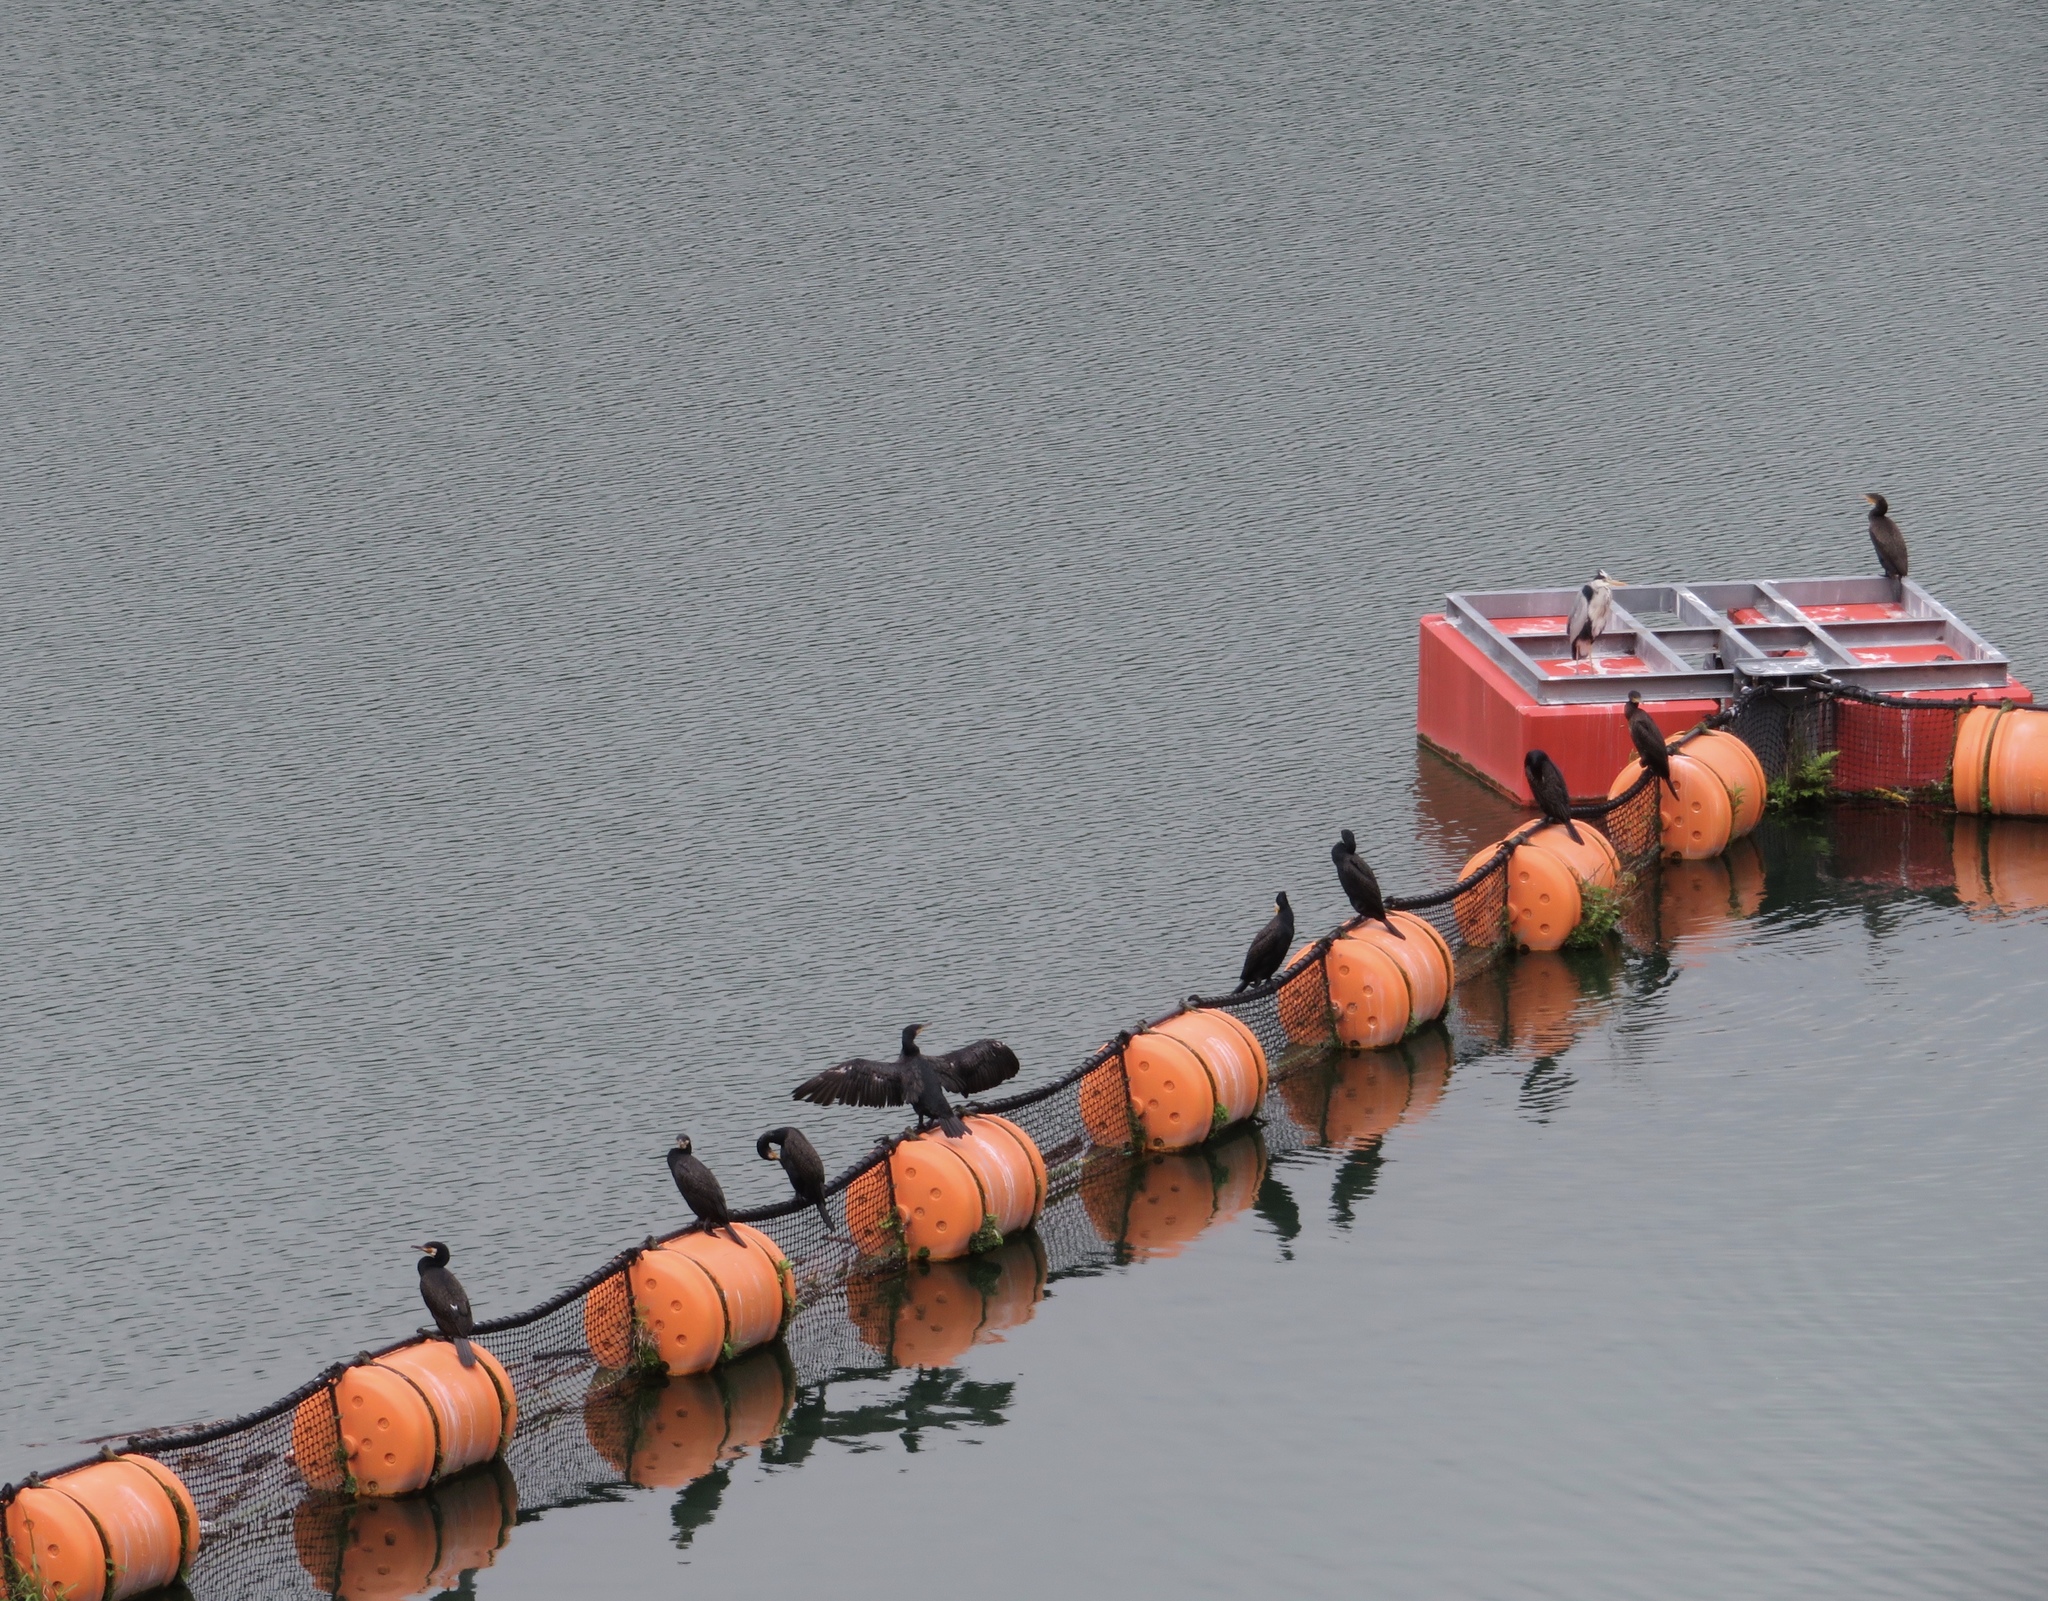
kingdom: Animalia
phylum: Chordata
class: Aves
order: Suliformes
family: Phalacrocoracidae
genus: Phalacrocorax
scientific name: Phalacrocorax carbo
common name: Great cormorant
